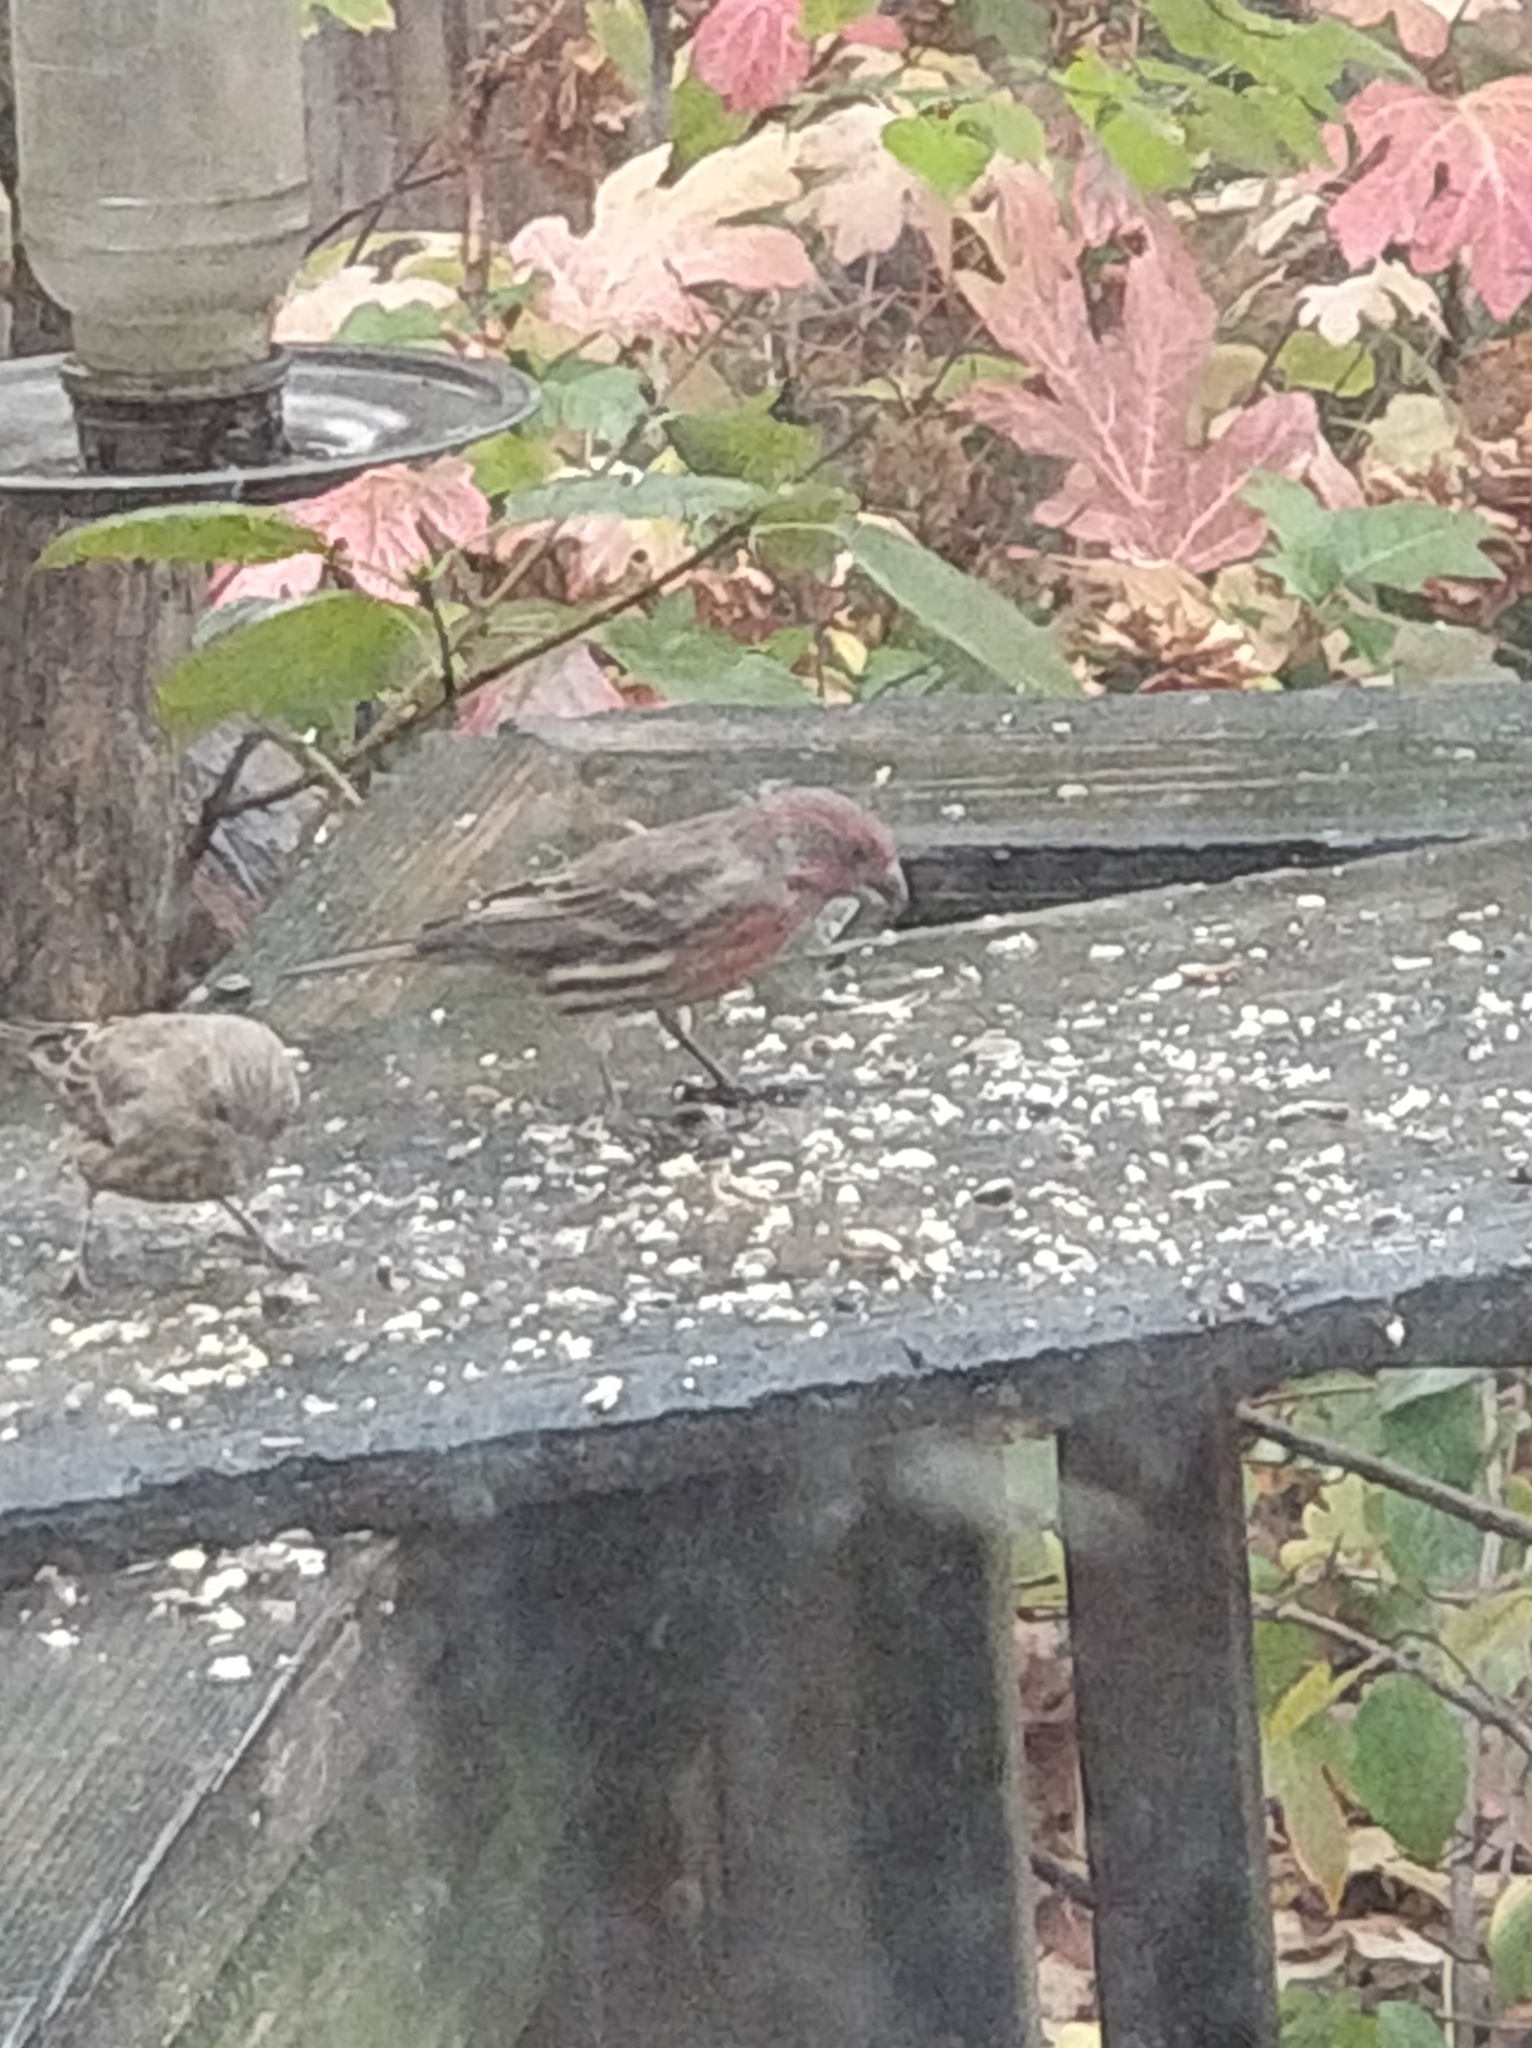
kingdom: Animalia
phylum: Chordata
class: Aves
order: Passeriformes
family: Fringillidae
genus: Haemorhous
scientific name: Haemorhous mexicanus
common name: House finch
